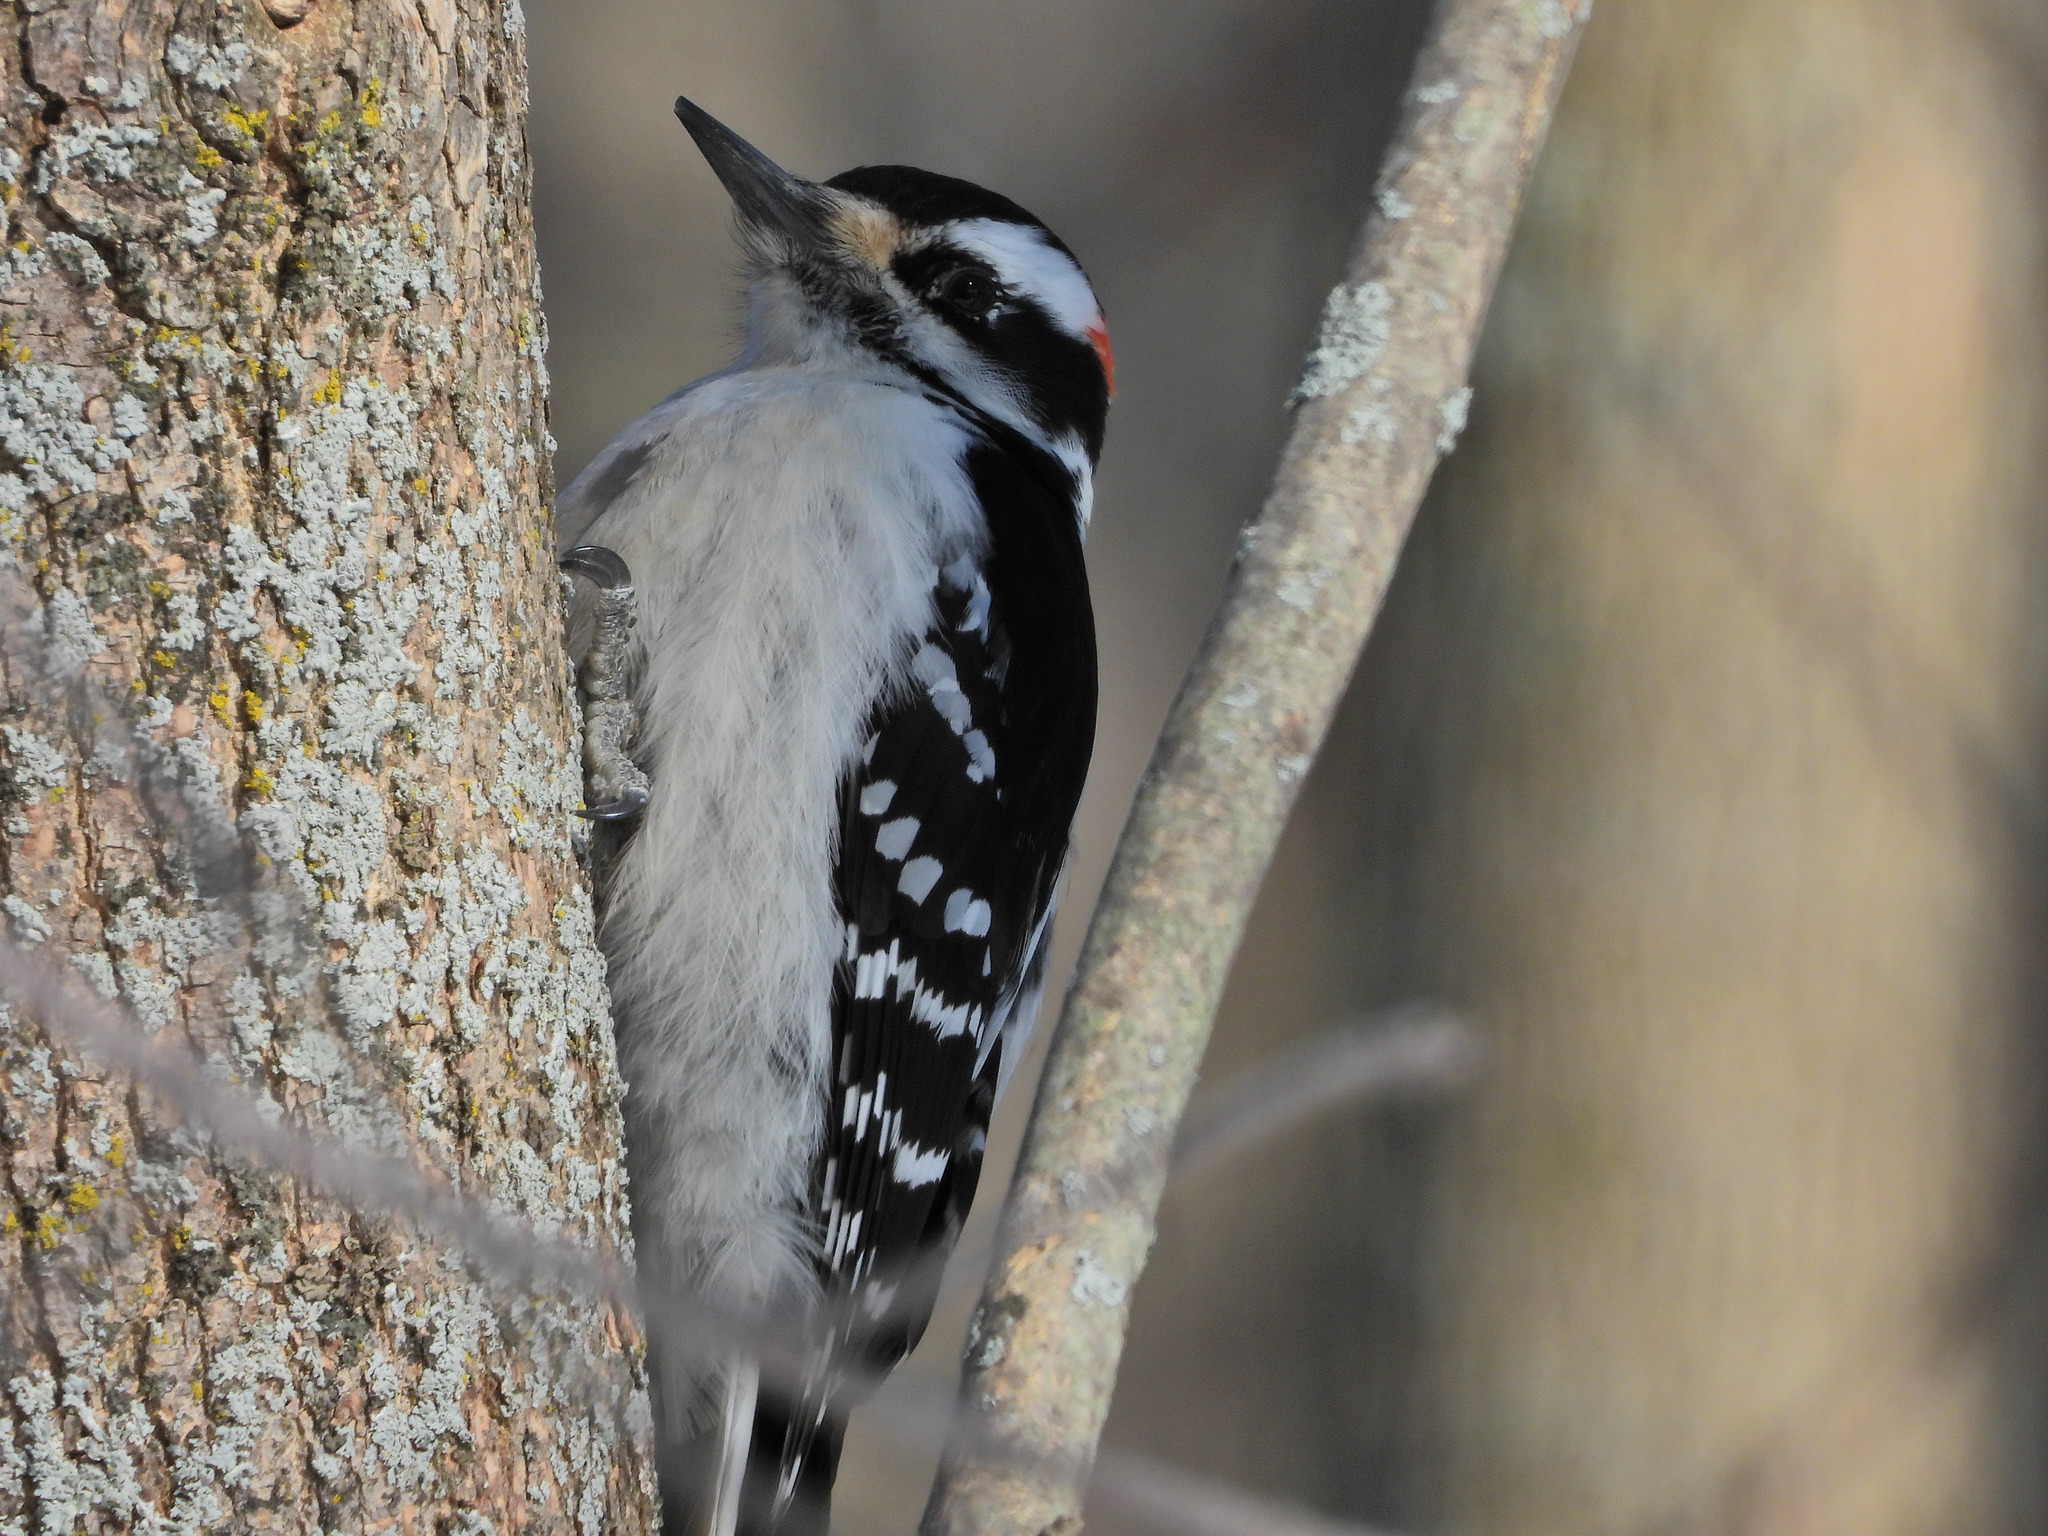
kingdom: Animalia
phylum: Chordata
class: Aves
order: Piciformes
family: Picidae
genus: Leuconotopicus
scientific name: Leuconotopicus villosus
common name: Hairy woodpecker
